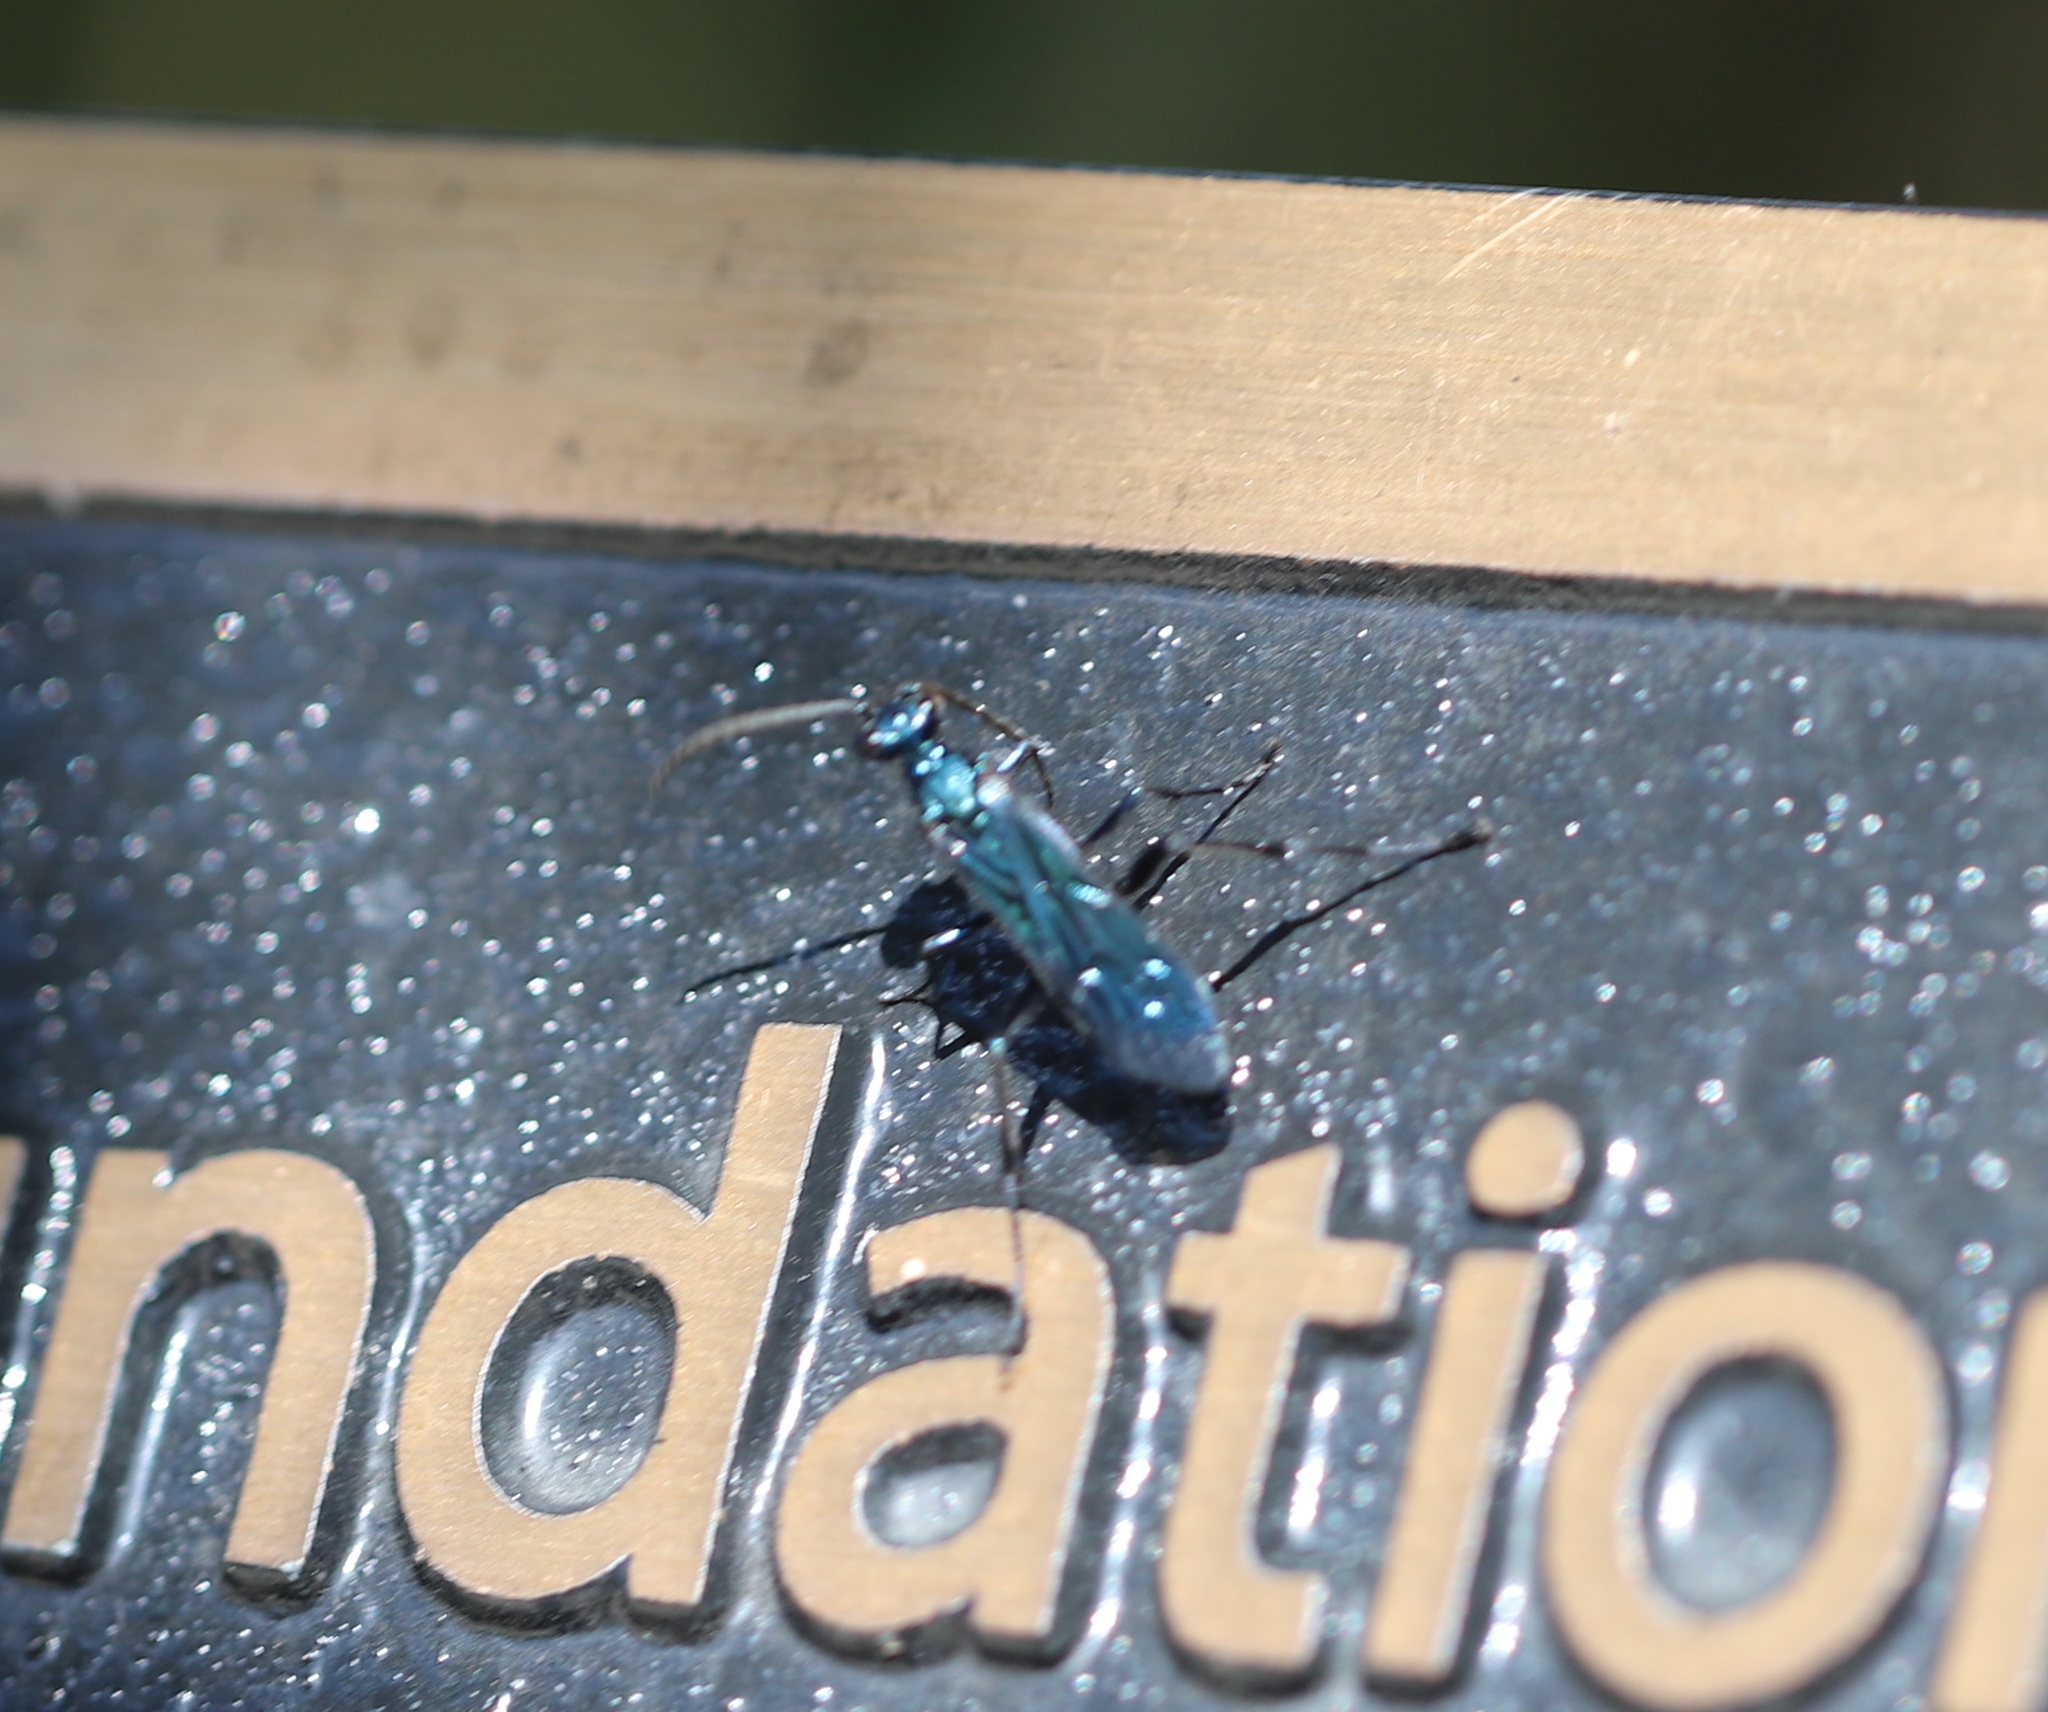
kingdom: Animalia
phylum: Arthropoda
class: Insecta
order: Hymenoptera
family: Sphecidae
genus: Chalybion
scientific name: Chalybion californicum
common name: Mud dauber
